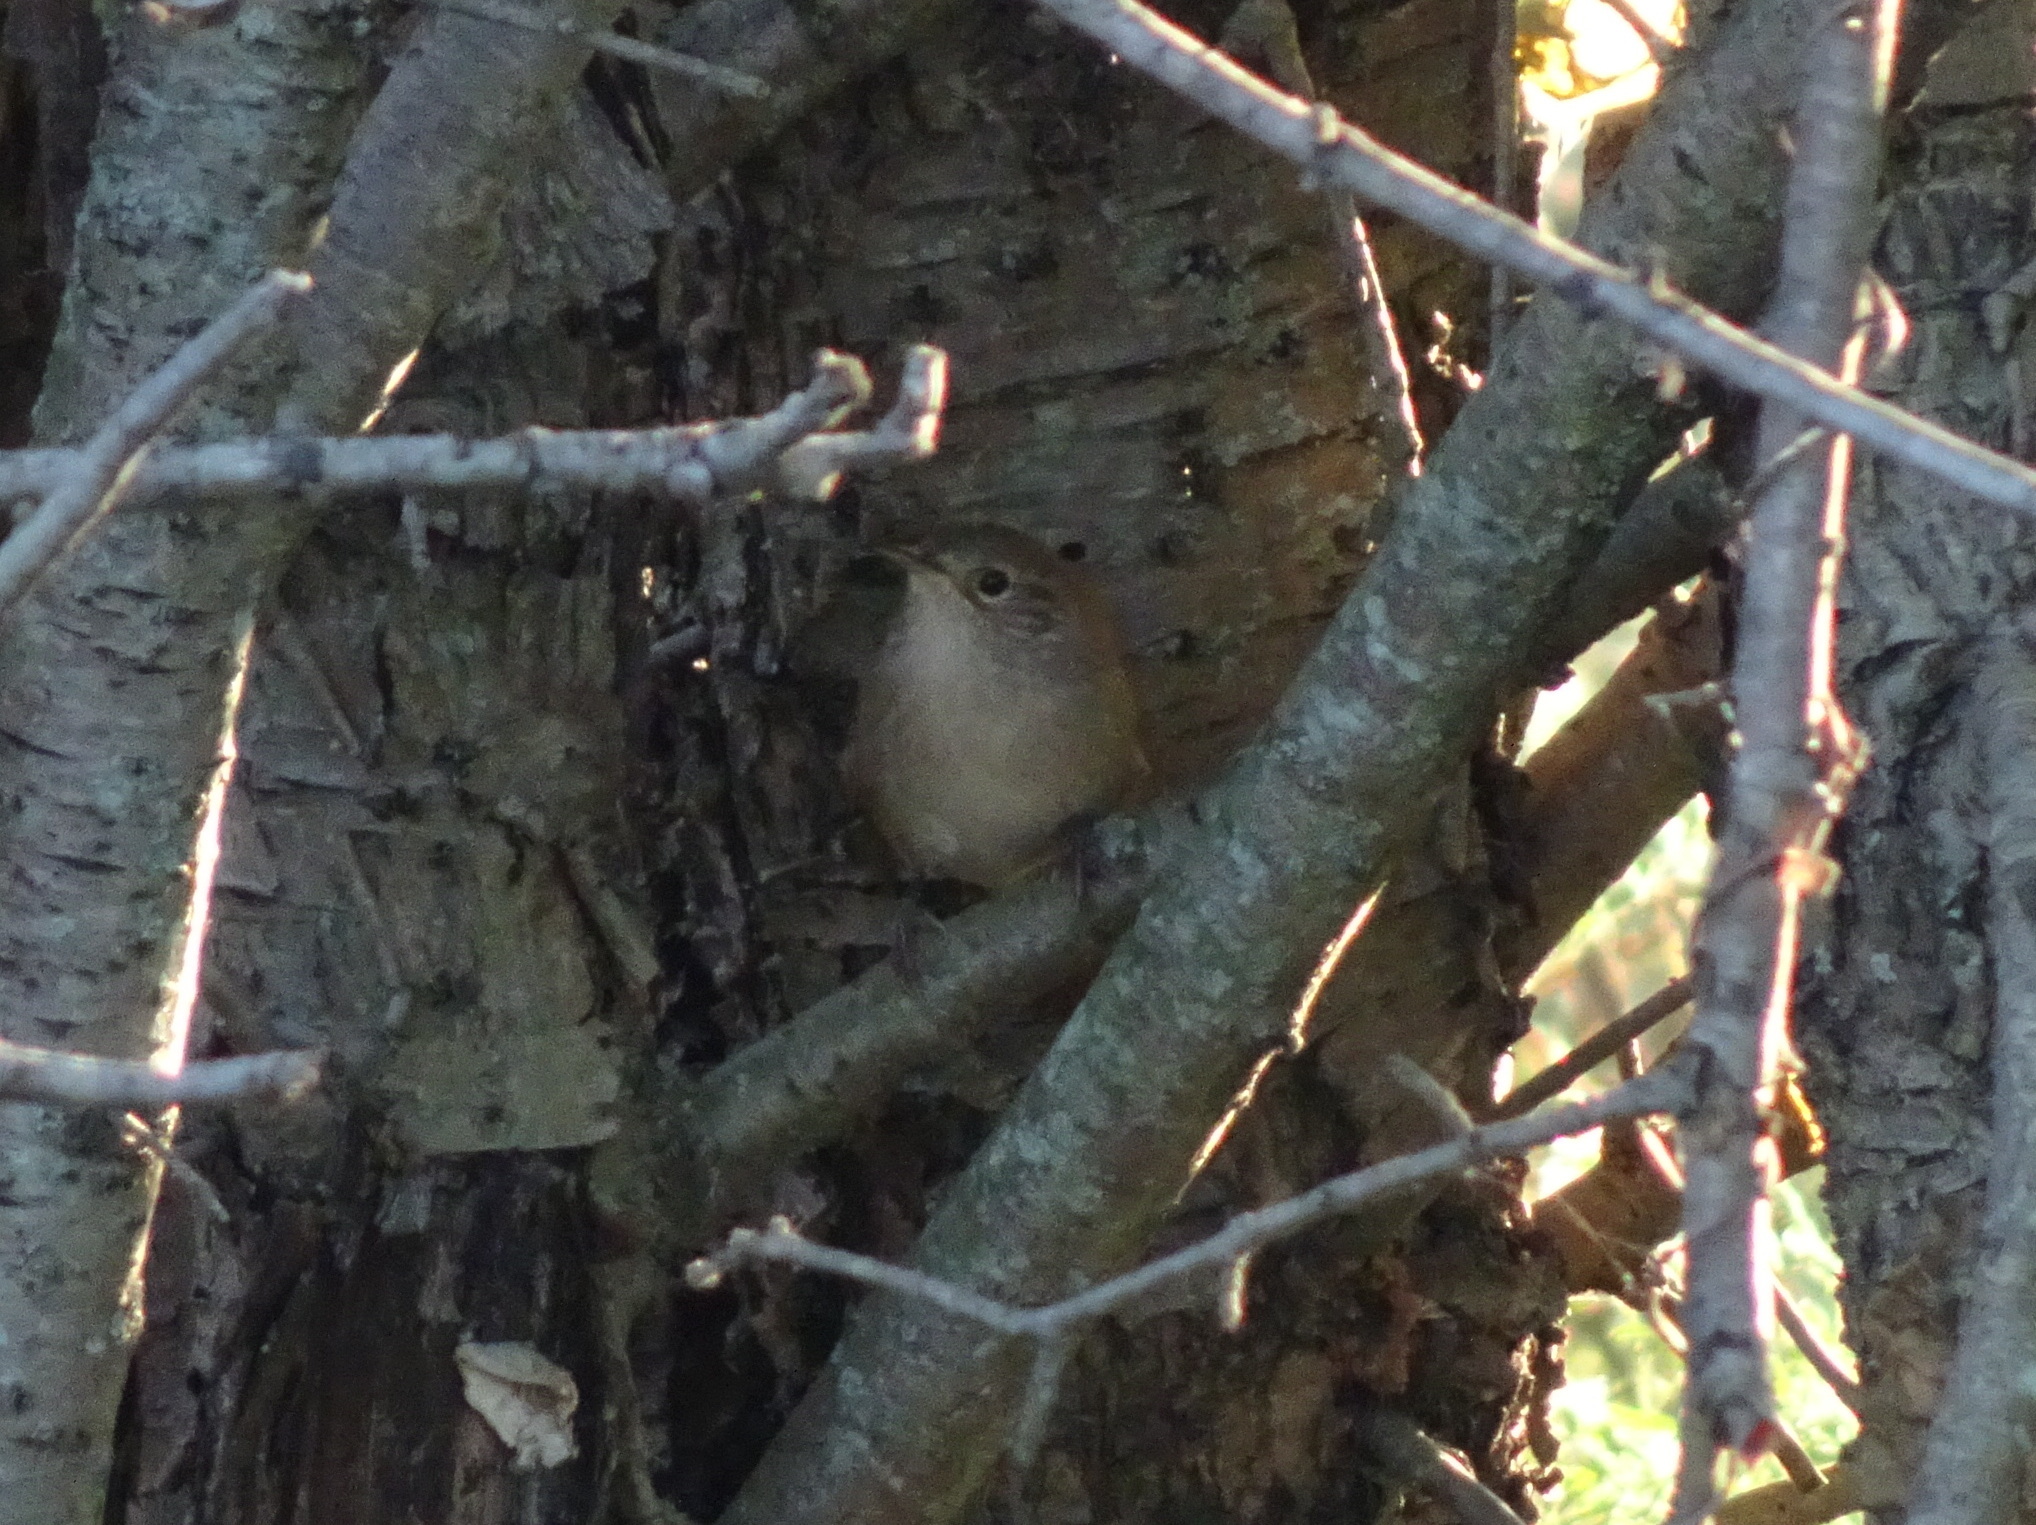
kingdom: Animalia
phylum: Chordata
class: Aves
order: Passeriformes
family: Troglodytidae
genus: Troglodytes
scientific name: Troglodytes aedon
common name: House wren
